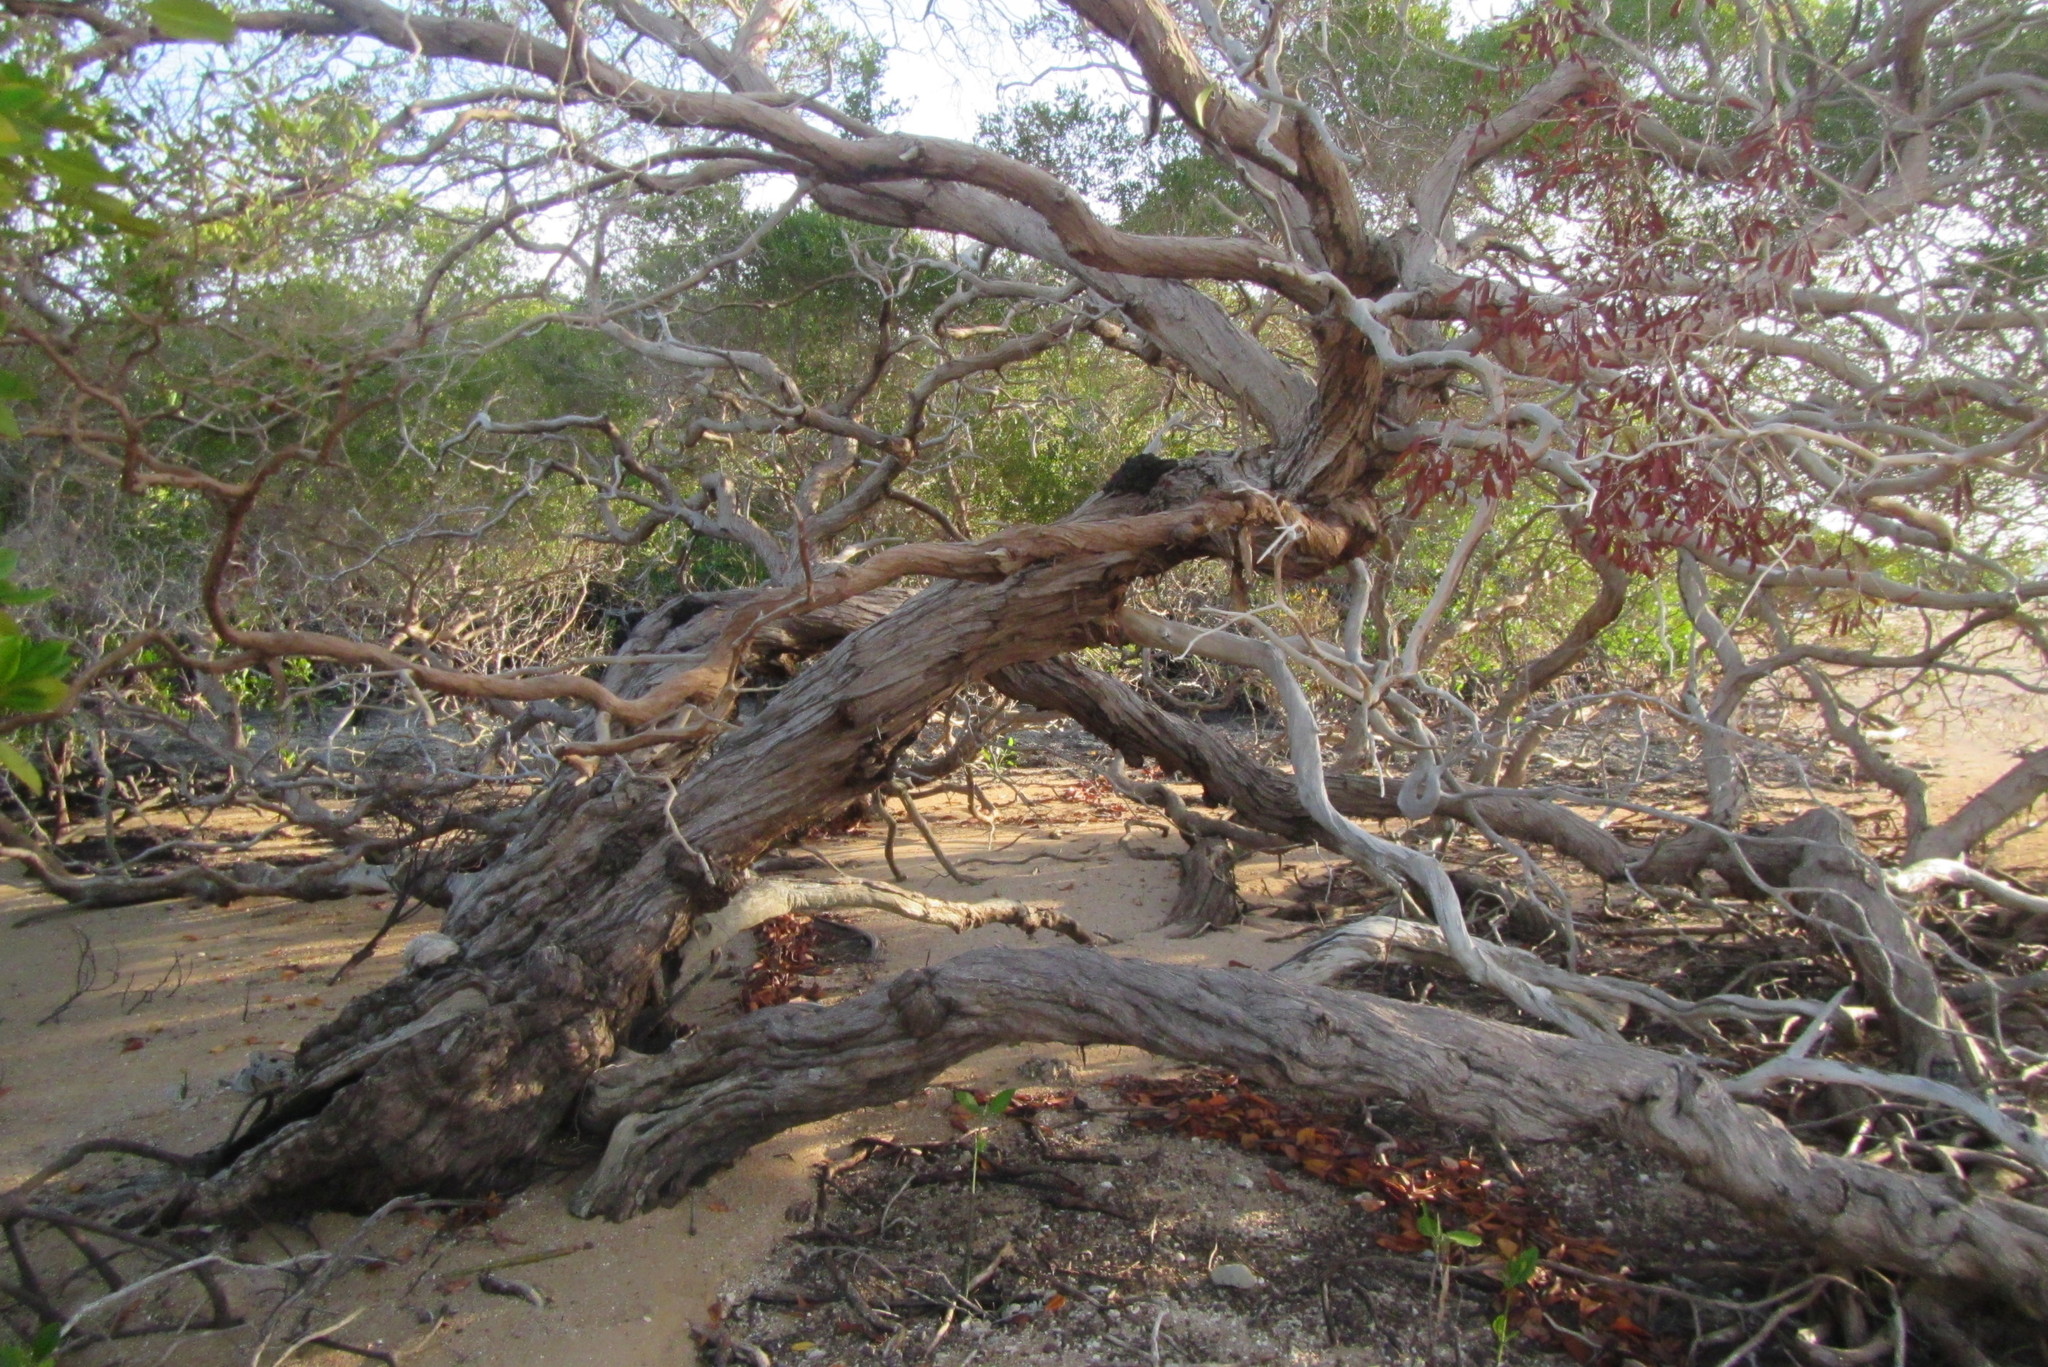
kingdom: Plantae
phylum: Tracheophyta
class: Magnoliopsida
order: Myrtales
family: Myrtaceae
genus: Osbornia
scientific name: Osbornia octodonta
